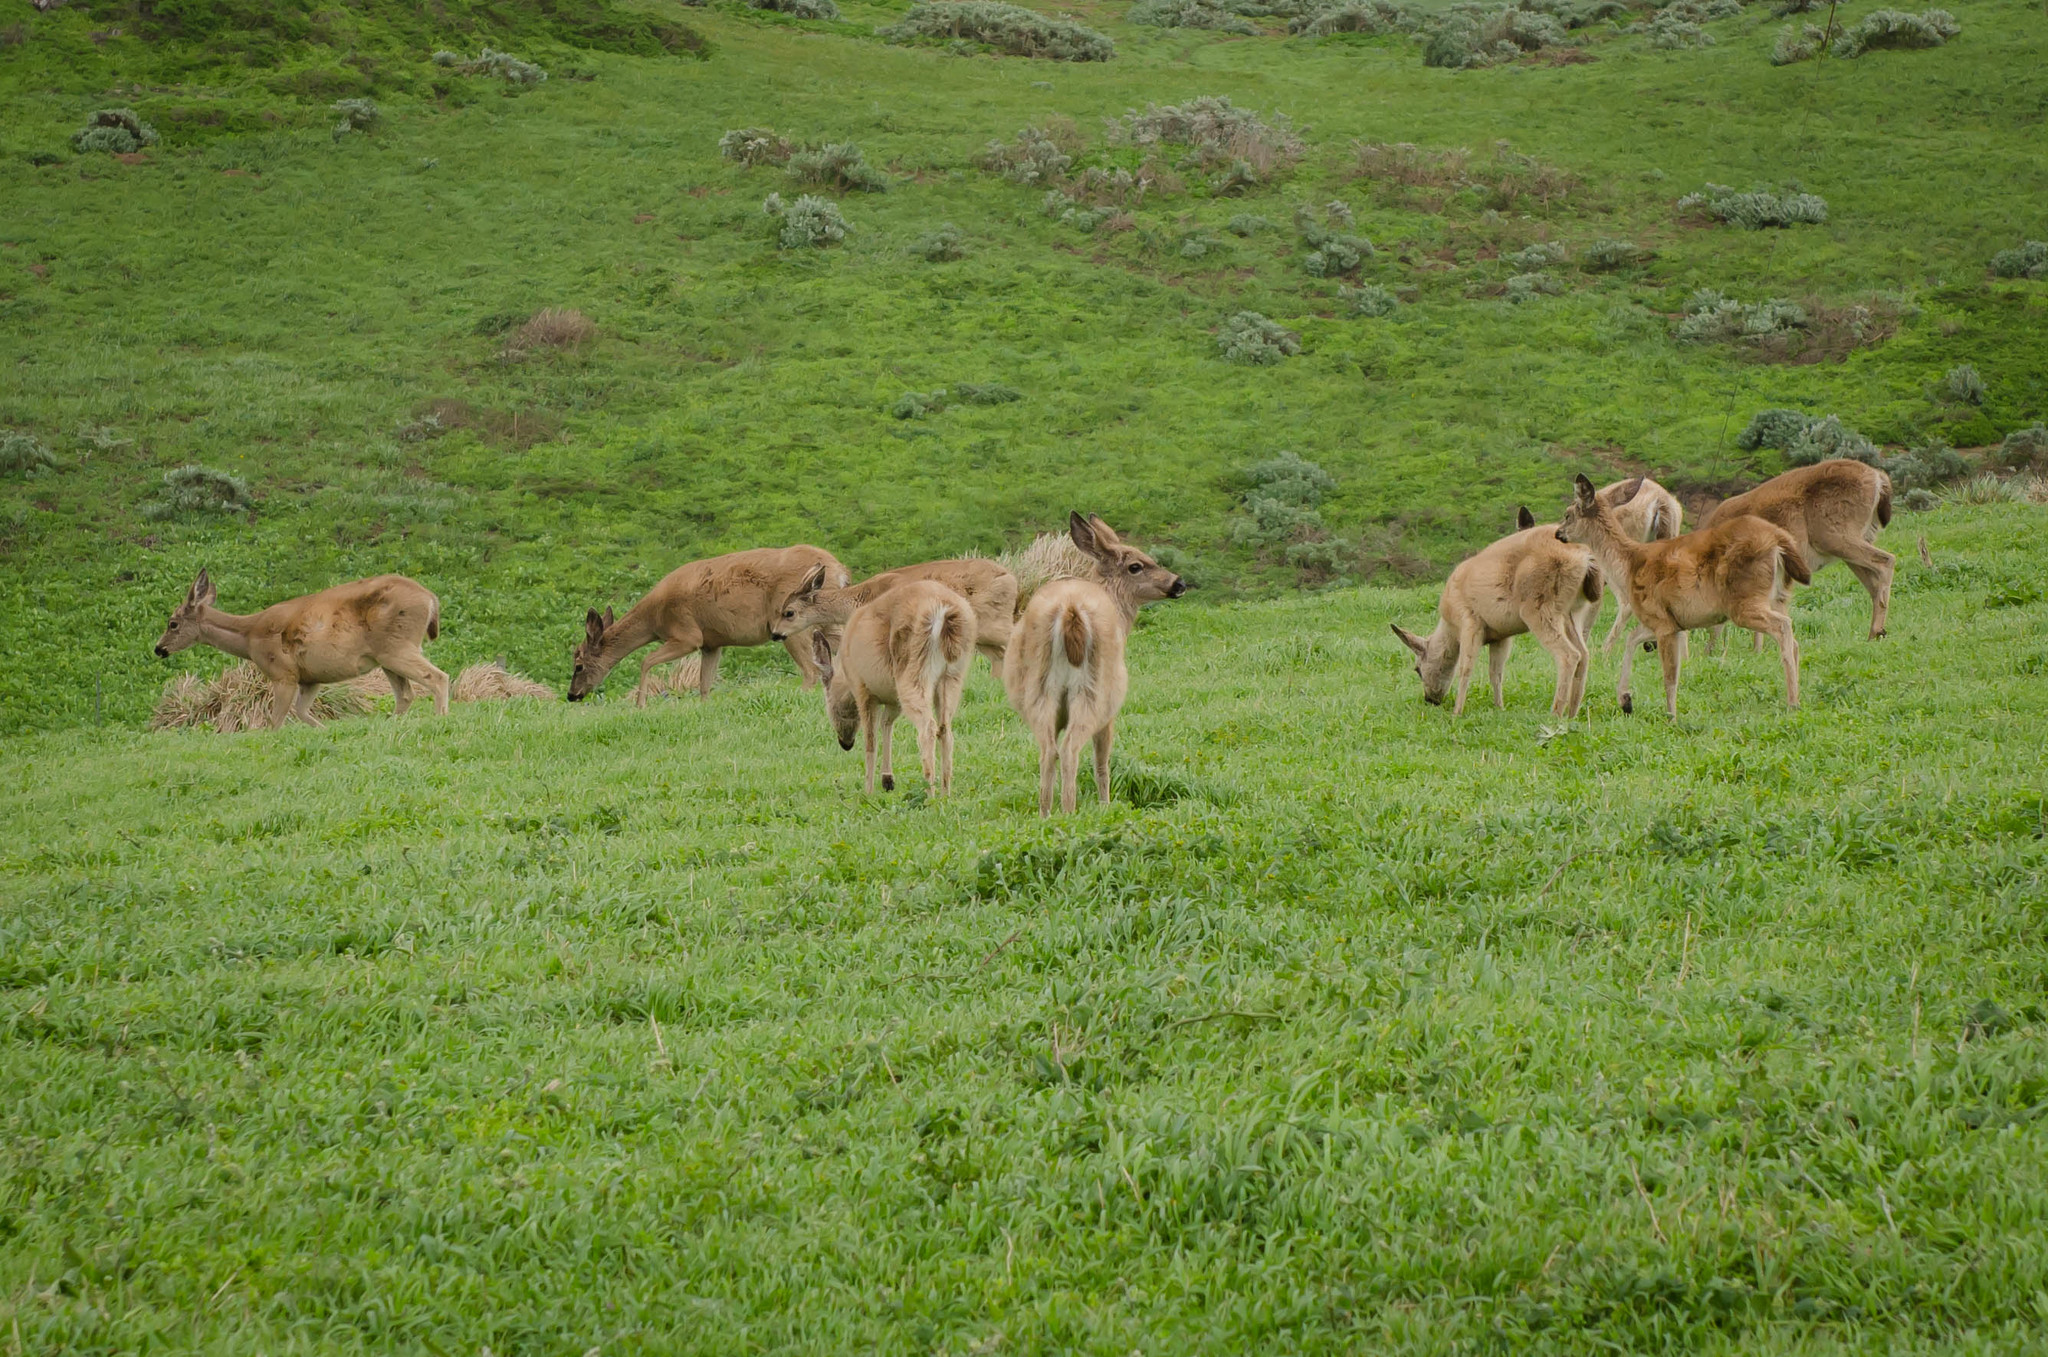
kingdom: Animalia
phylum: Chordata
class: Mammalia
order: Artiodactyla
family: Cervidae
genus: Odocoileus
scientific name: Odocoileus hemionus
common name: Mule deer
